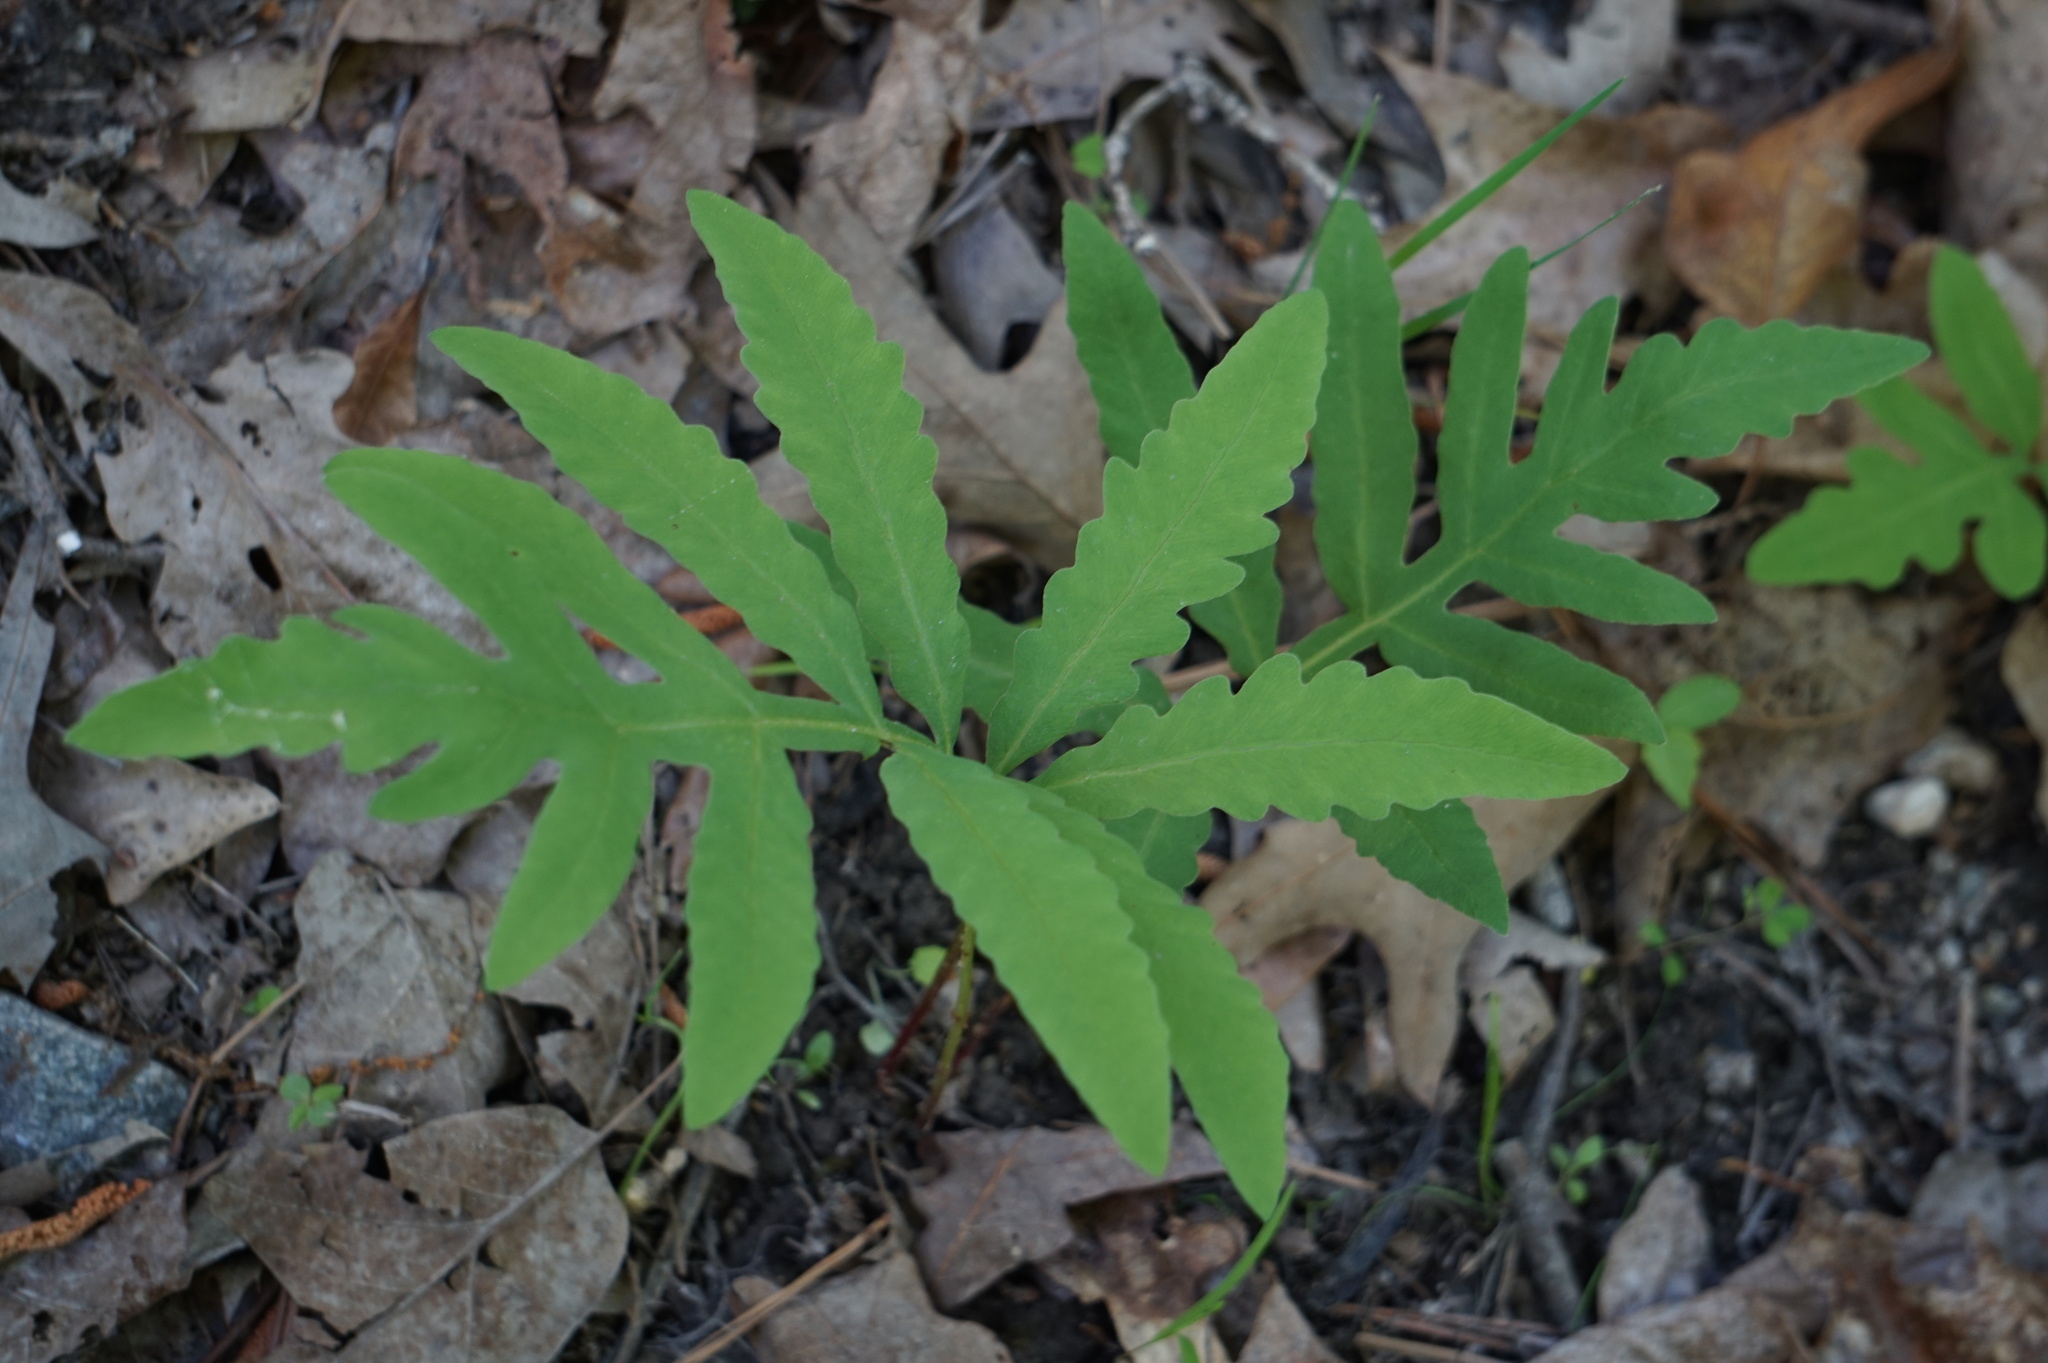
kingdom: Plantae
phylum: Tracheophyta
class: Polypodiopsida
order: Polypodiales
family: Onocleaceae
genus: Onoclea
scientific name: Onoclea sensibilis
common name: Sensitive fern
